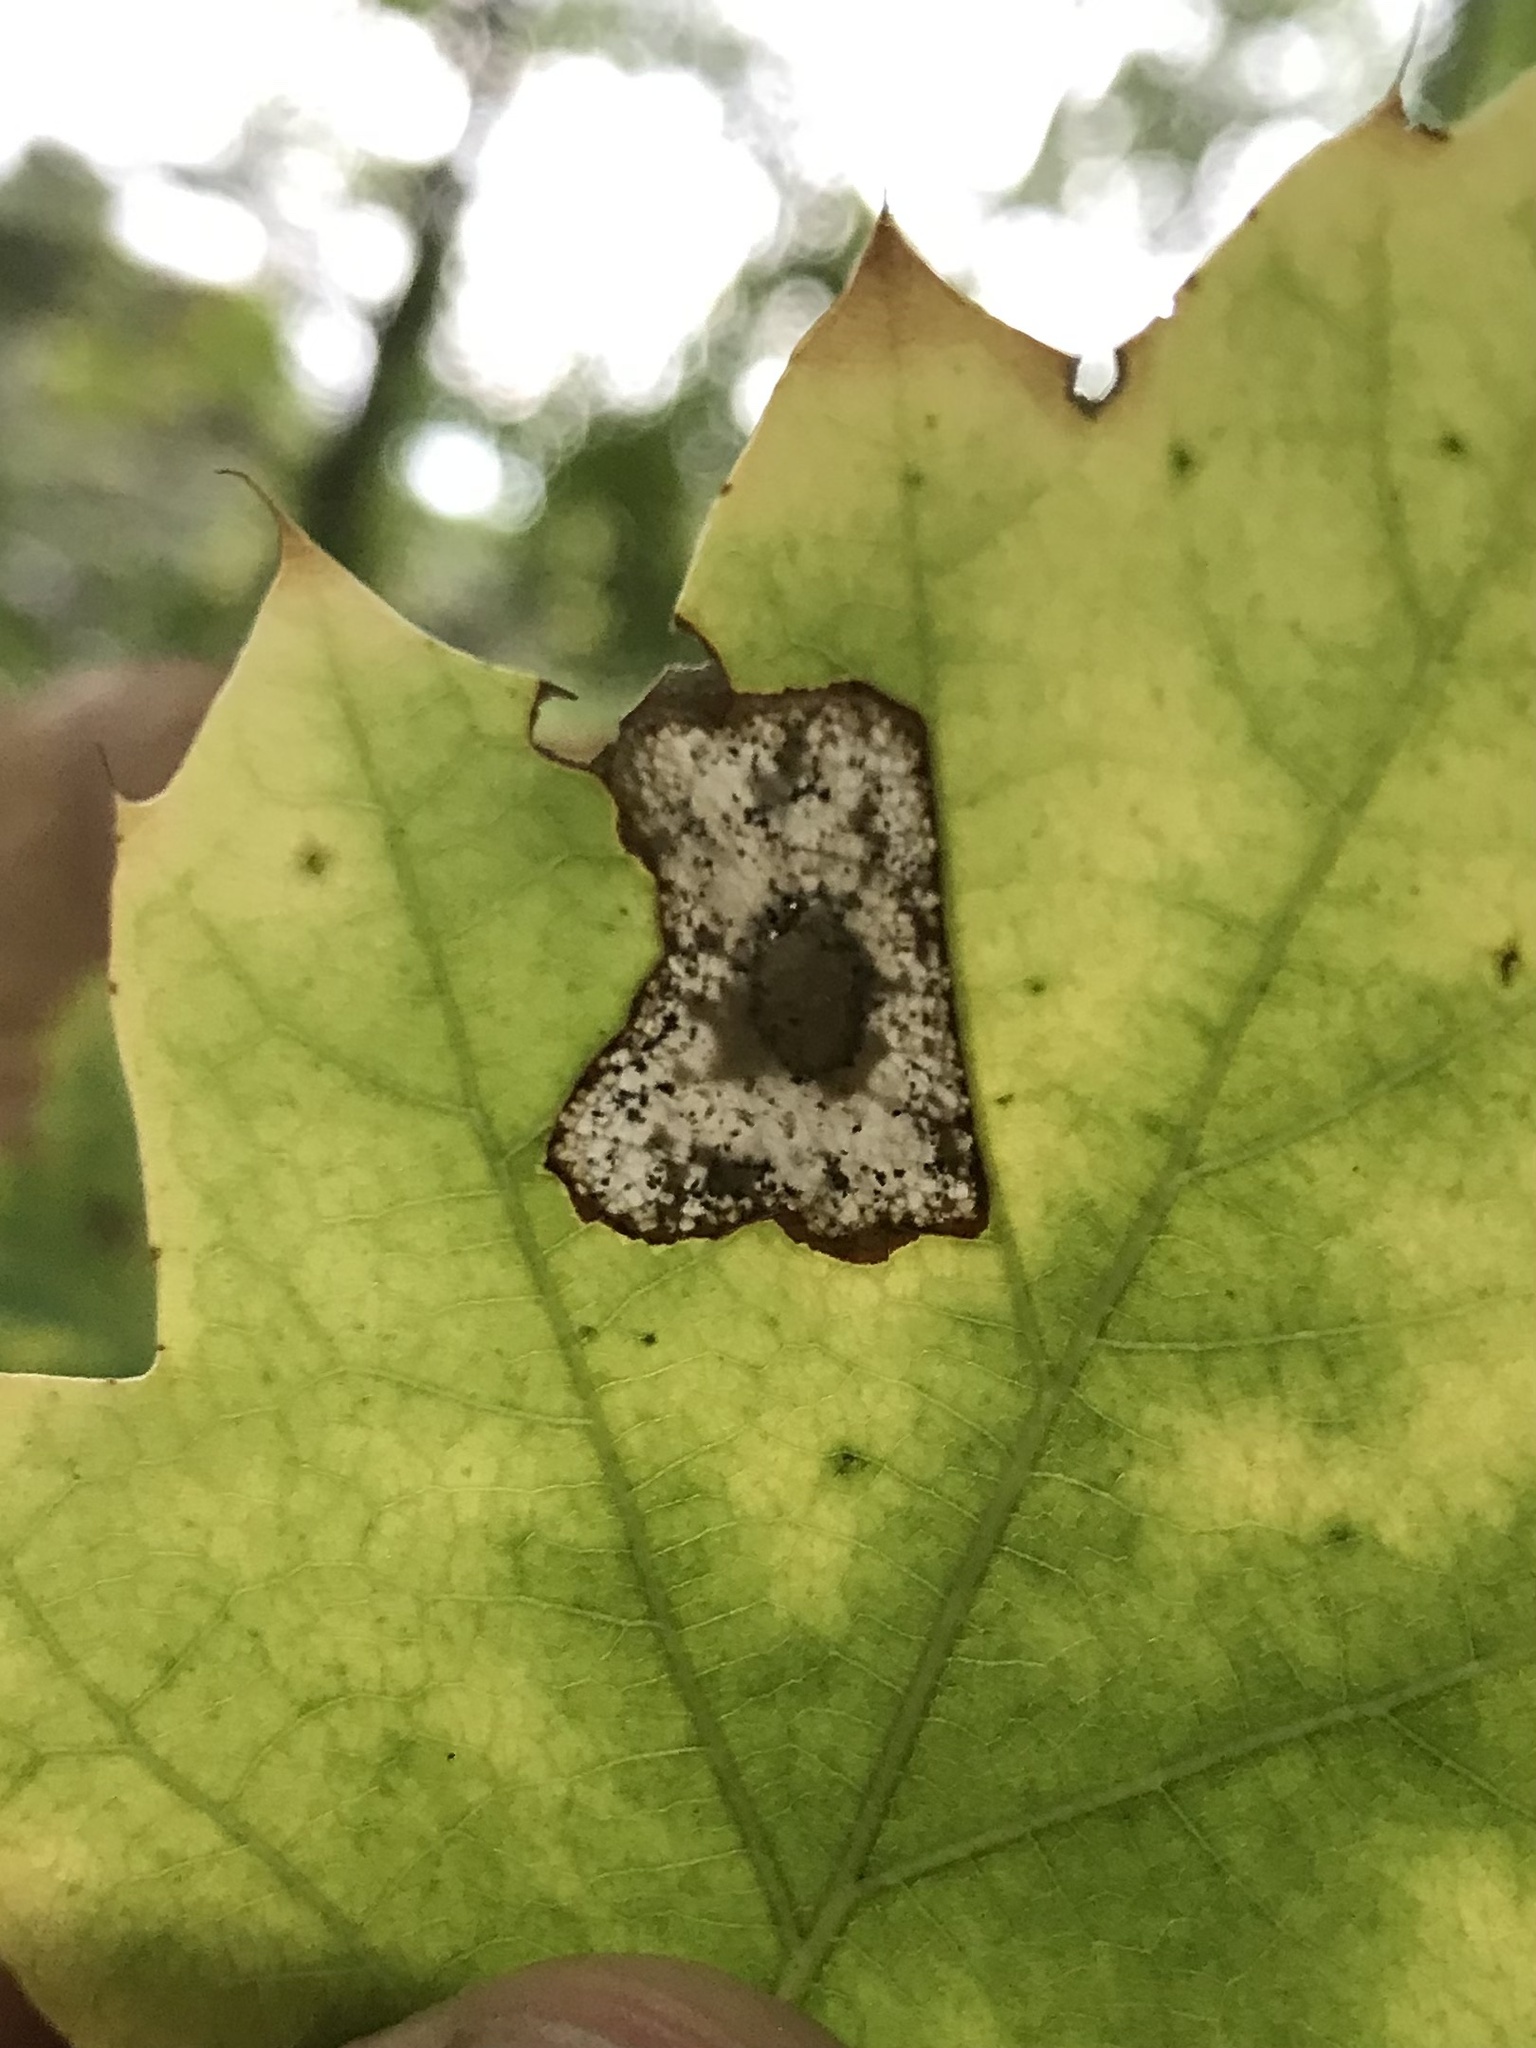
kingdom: Animalia
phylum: Arthropoda
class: Insecta
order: Lepidoptera
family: Gracillariidae
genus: Phyllonorycter
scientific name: Phyllonorycter basistrigella
